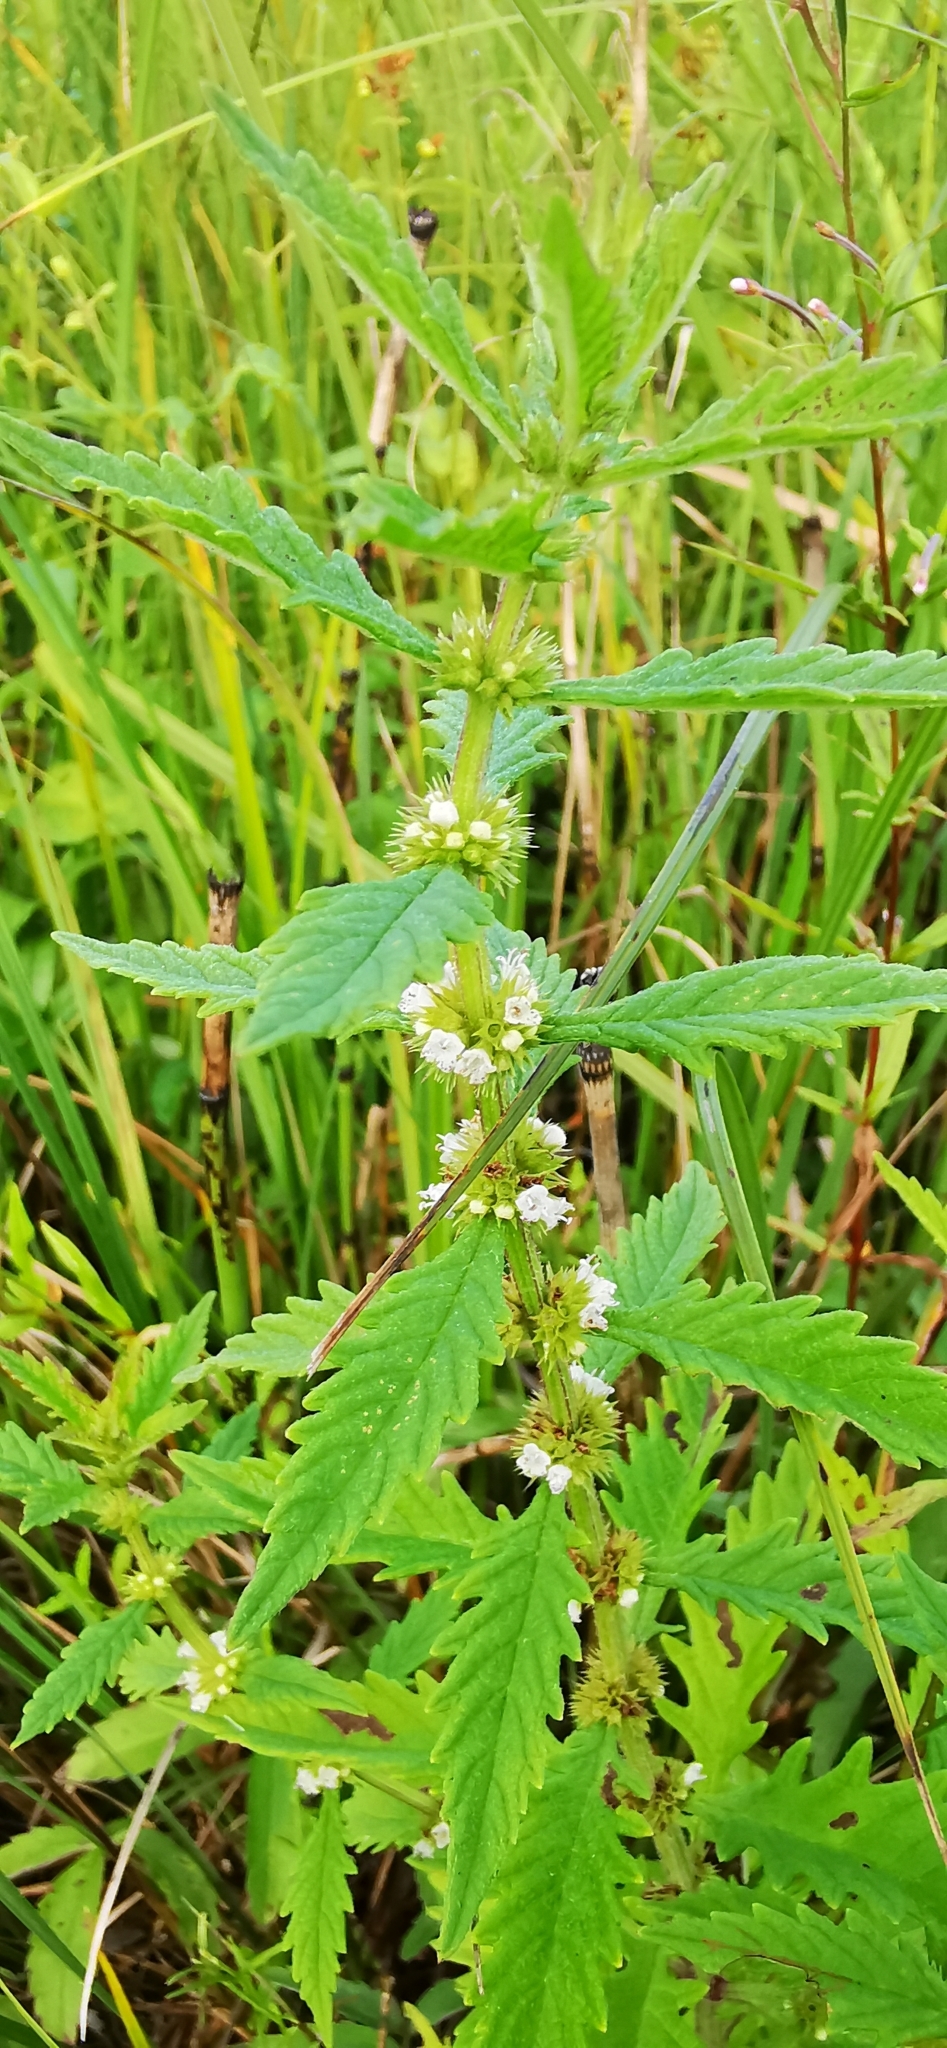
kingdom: Plantae
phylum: Tracheophyta
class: Magnoliopsida
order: Lamiales
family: Lamiaceae
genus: Lycopus
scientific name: Lycopus europaeus
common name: European bugleweed
